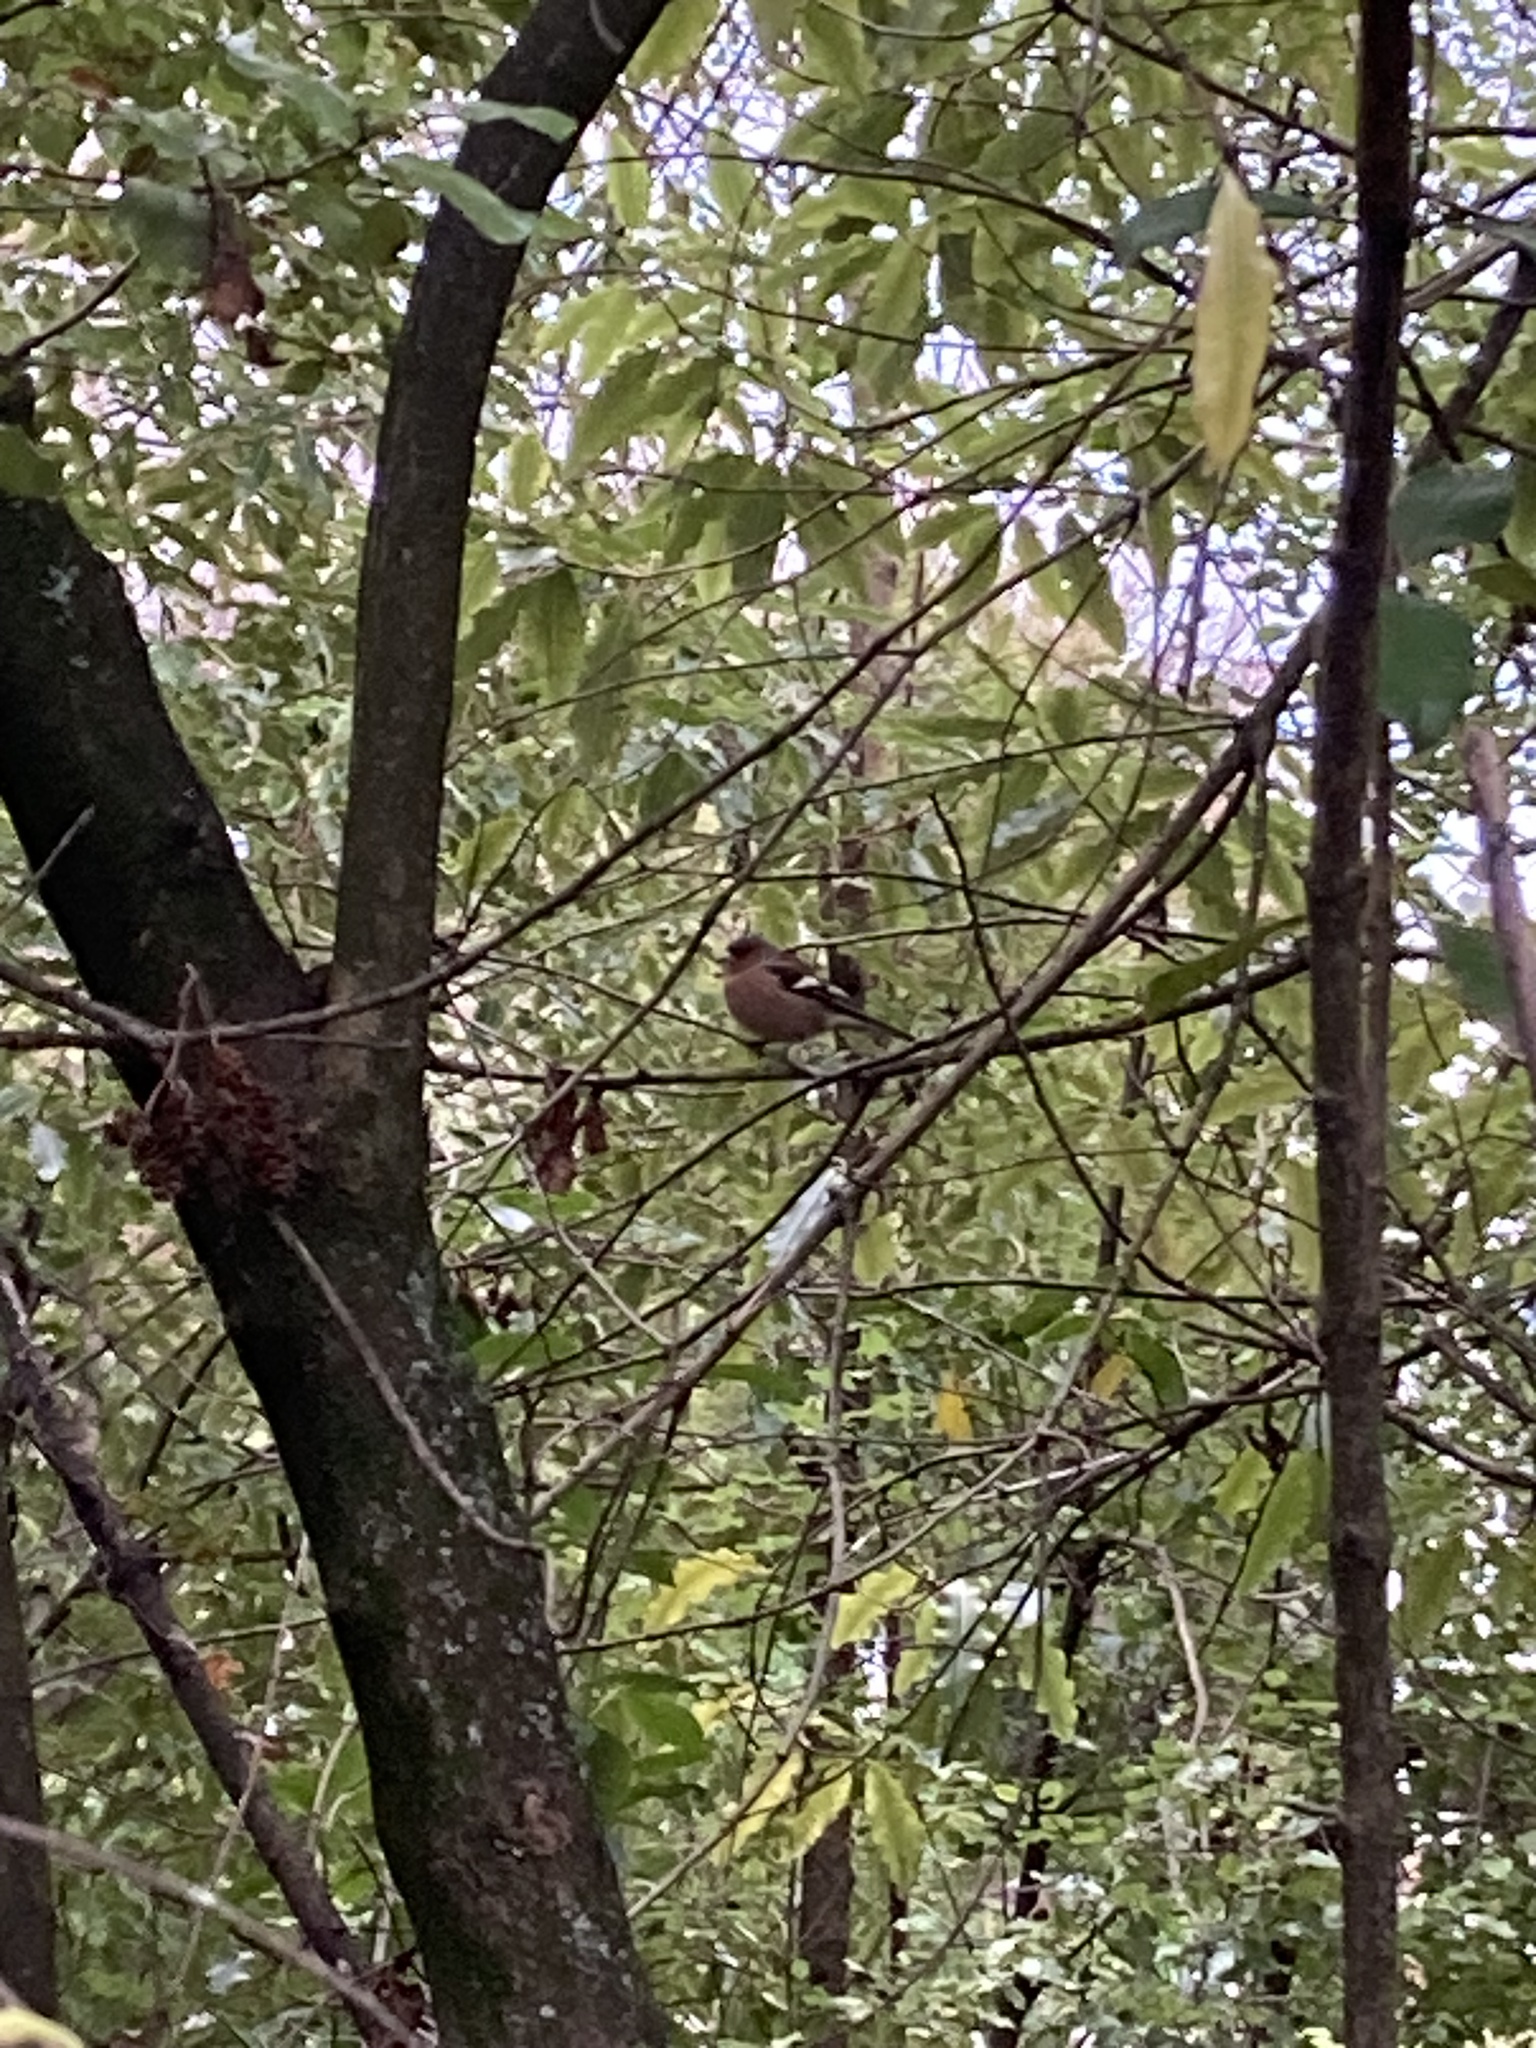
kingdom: Animalia
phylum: Chordata
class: Aves
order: Passeriformes
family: Fringillidae
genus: Fringilla
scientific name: Fringilla coelebs
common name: Common chaffinch
